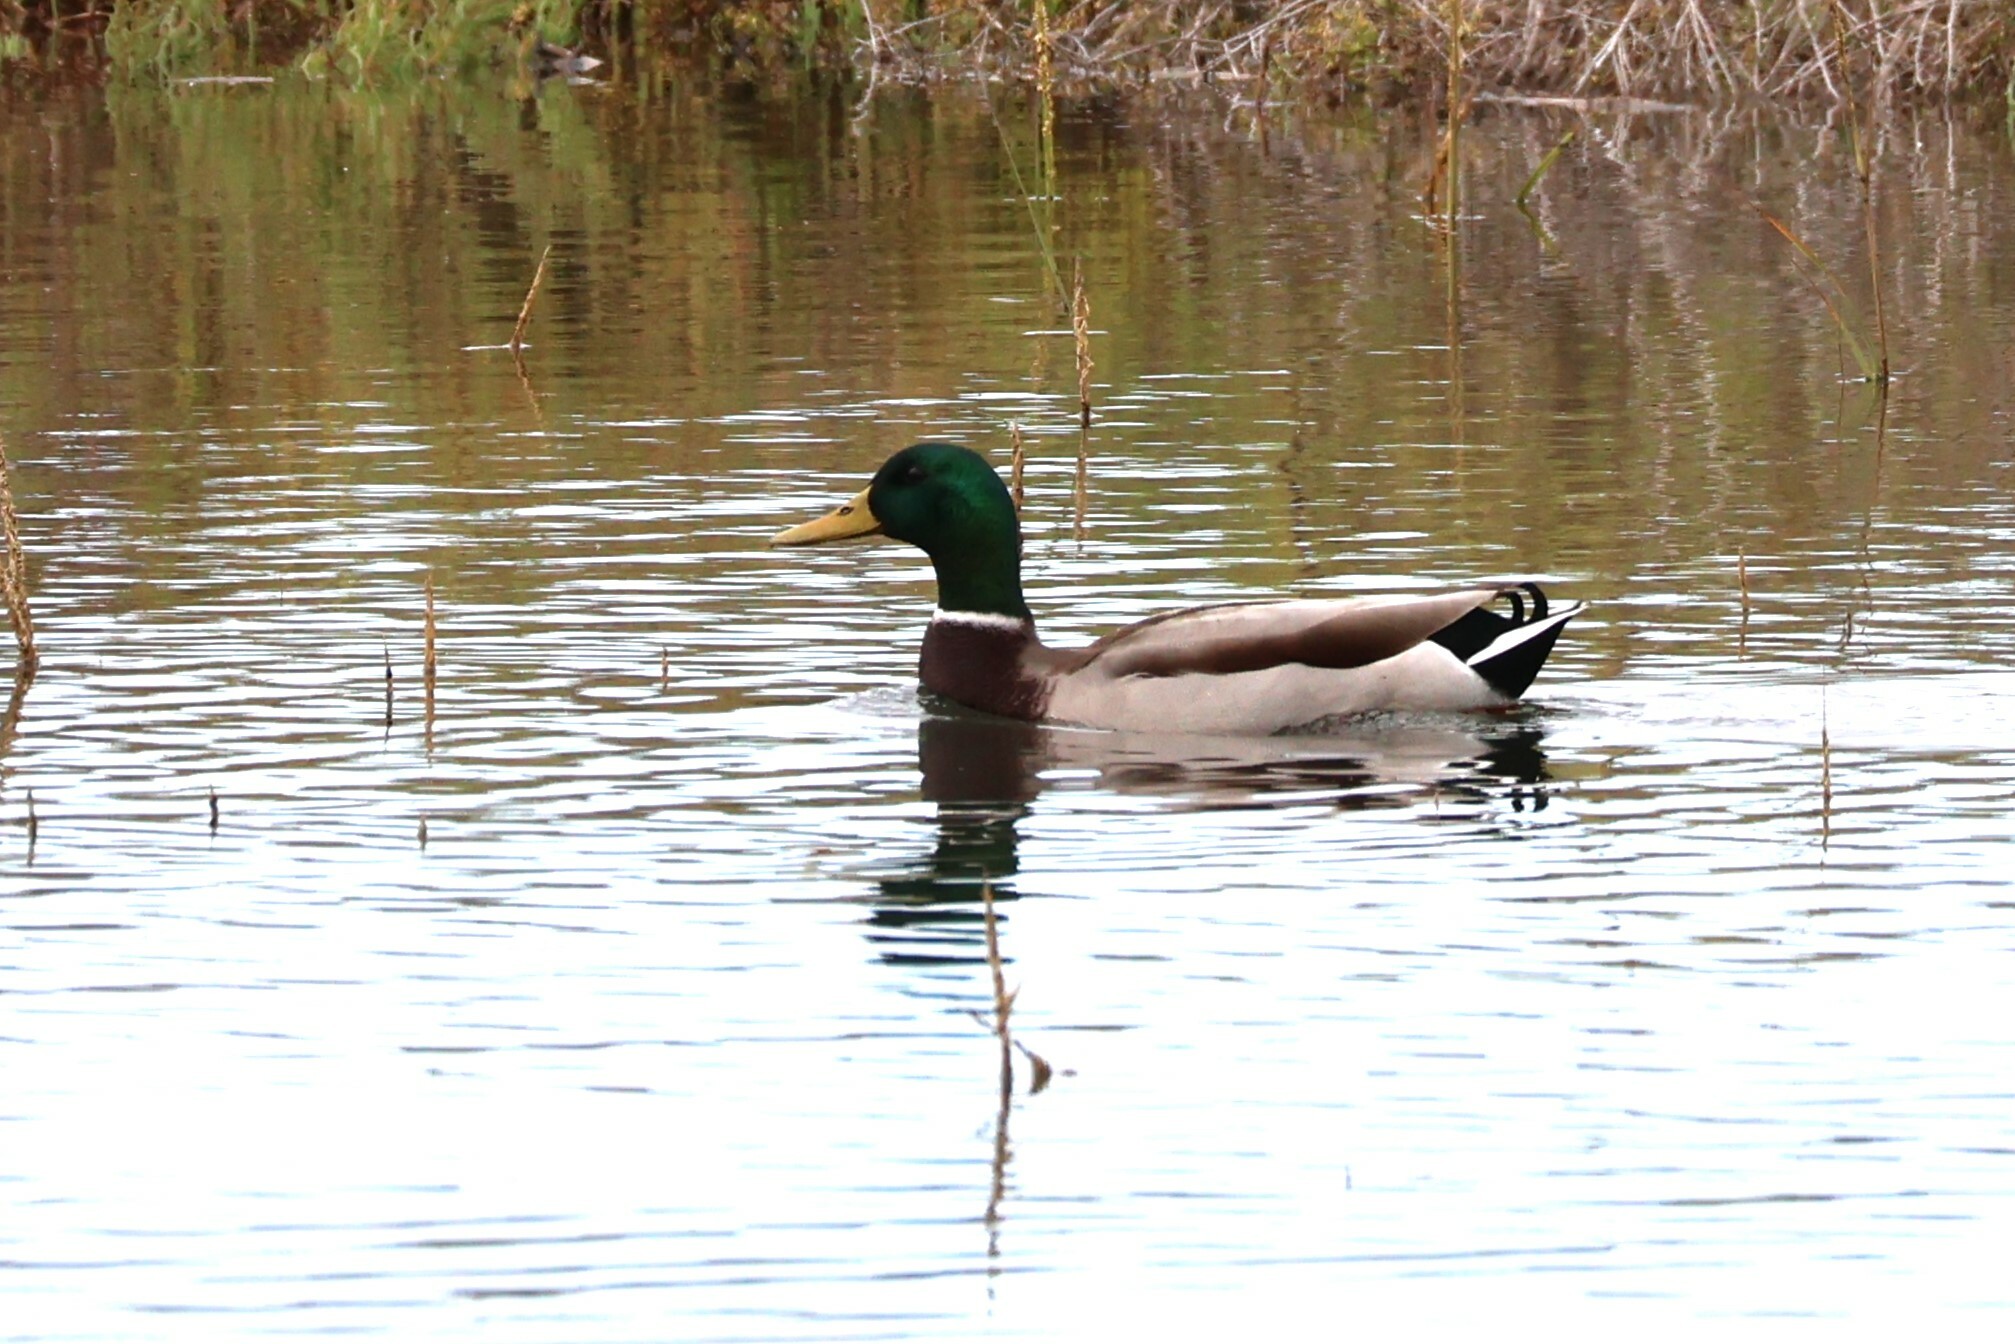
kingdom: Animalia
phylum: Chordata
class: Aves
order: Anseriformes
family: Anatidae
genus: Anas
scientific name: Anas platyrhynchos
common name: Mallard
